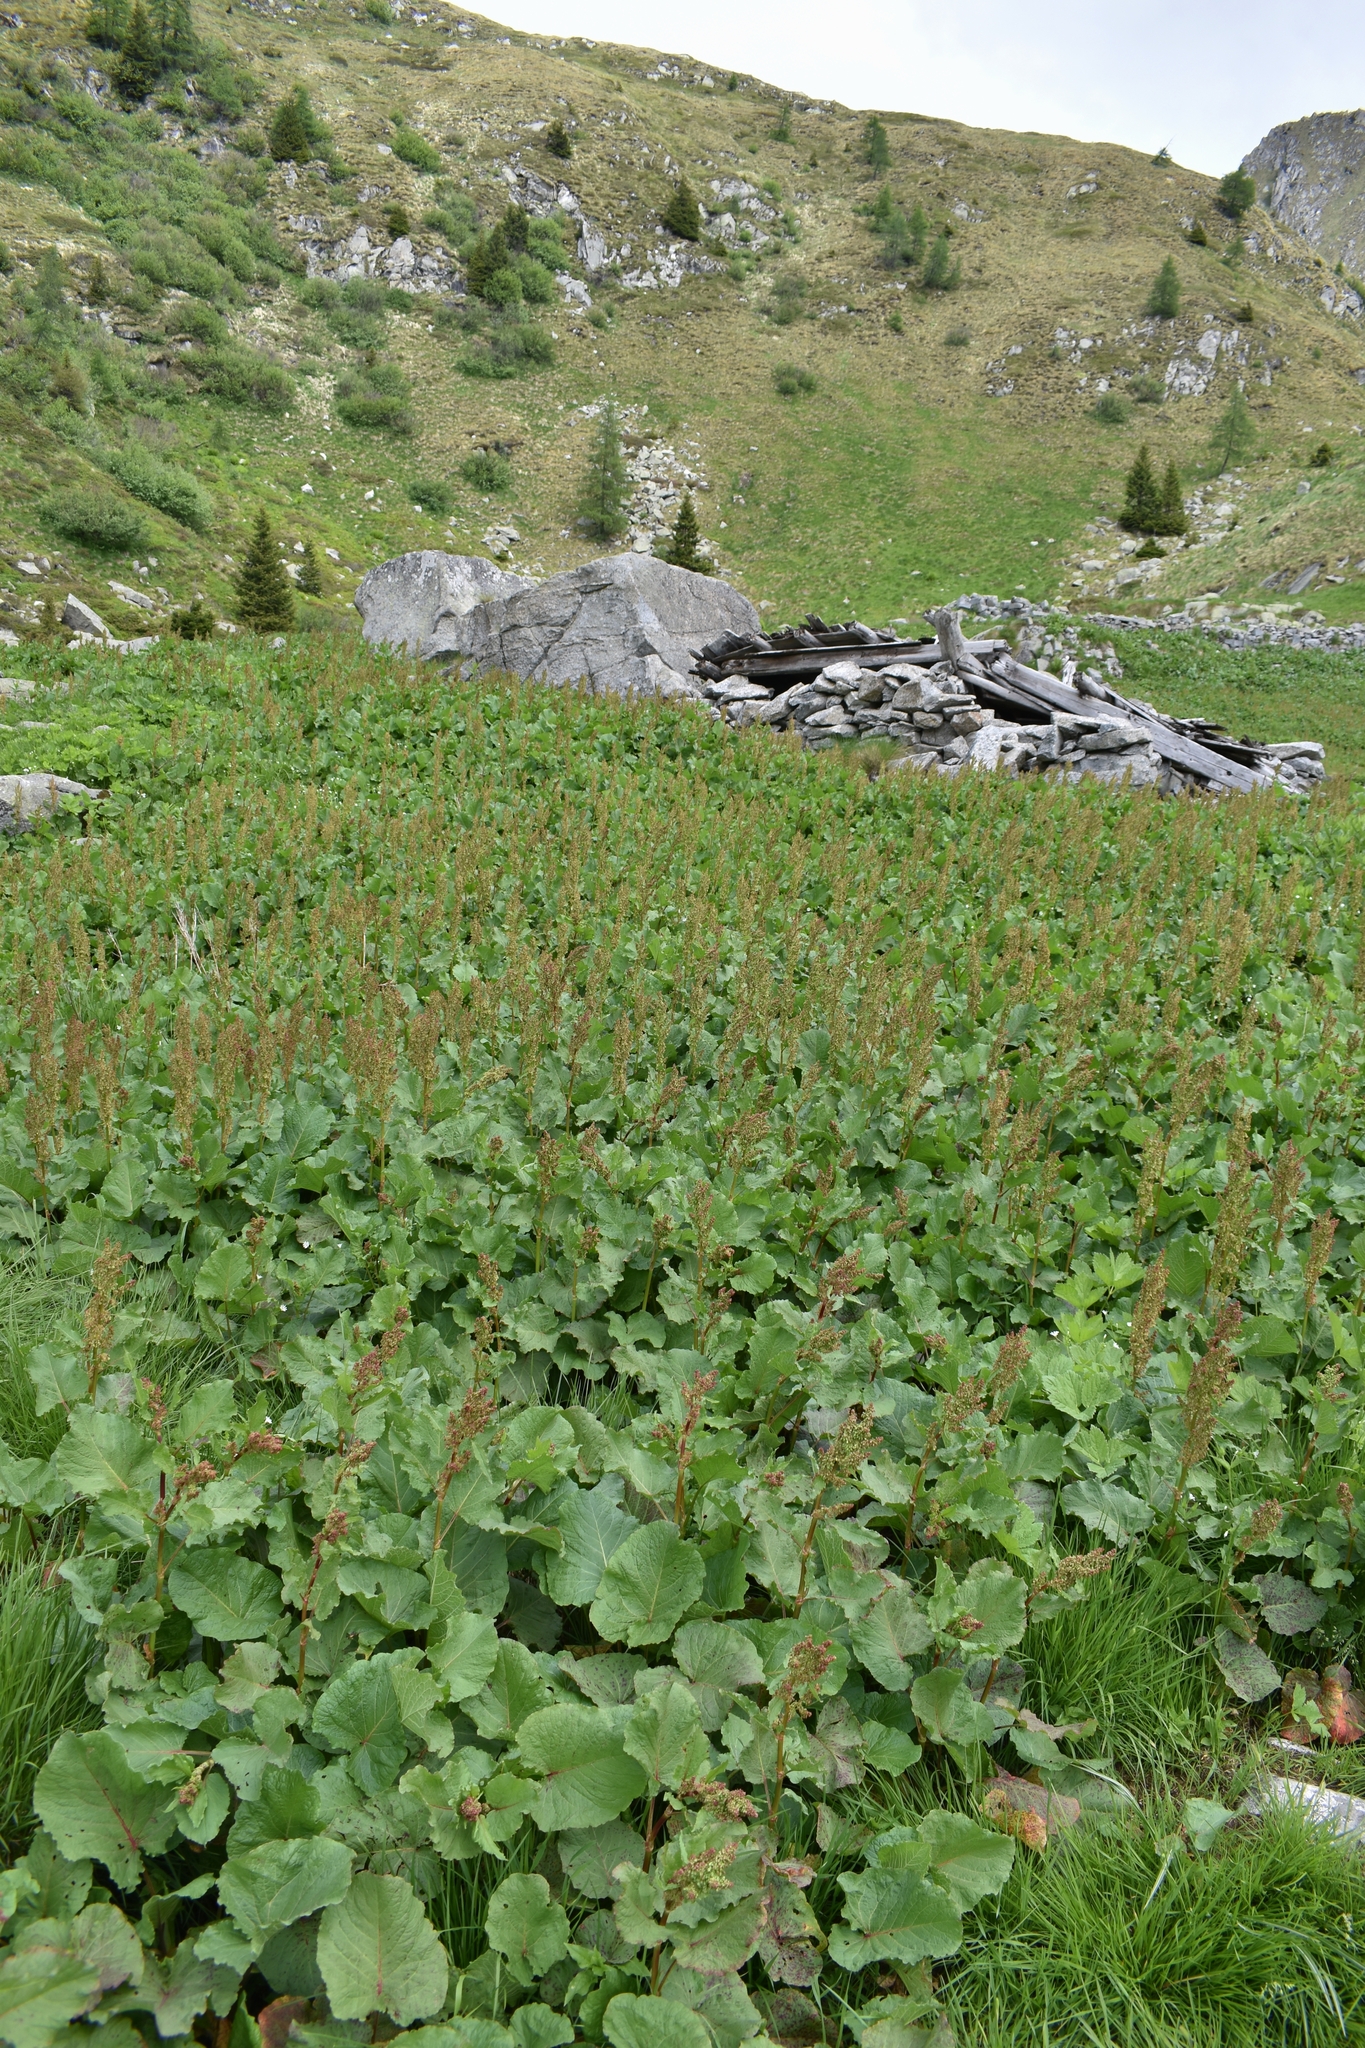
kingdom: Plantae
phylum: Tracheophyta
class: Magnoliopsida
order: Caryophyllales
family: Polygonaceae
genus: Rumex
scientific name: Rumex alpinus
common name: Alpine dock
